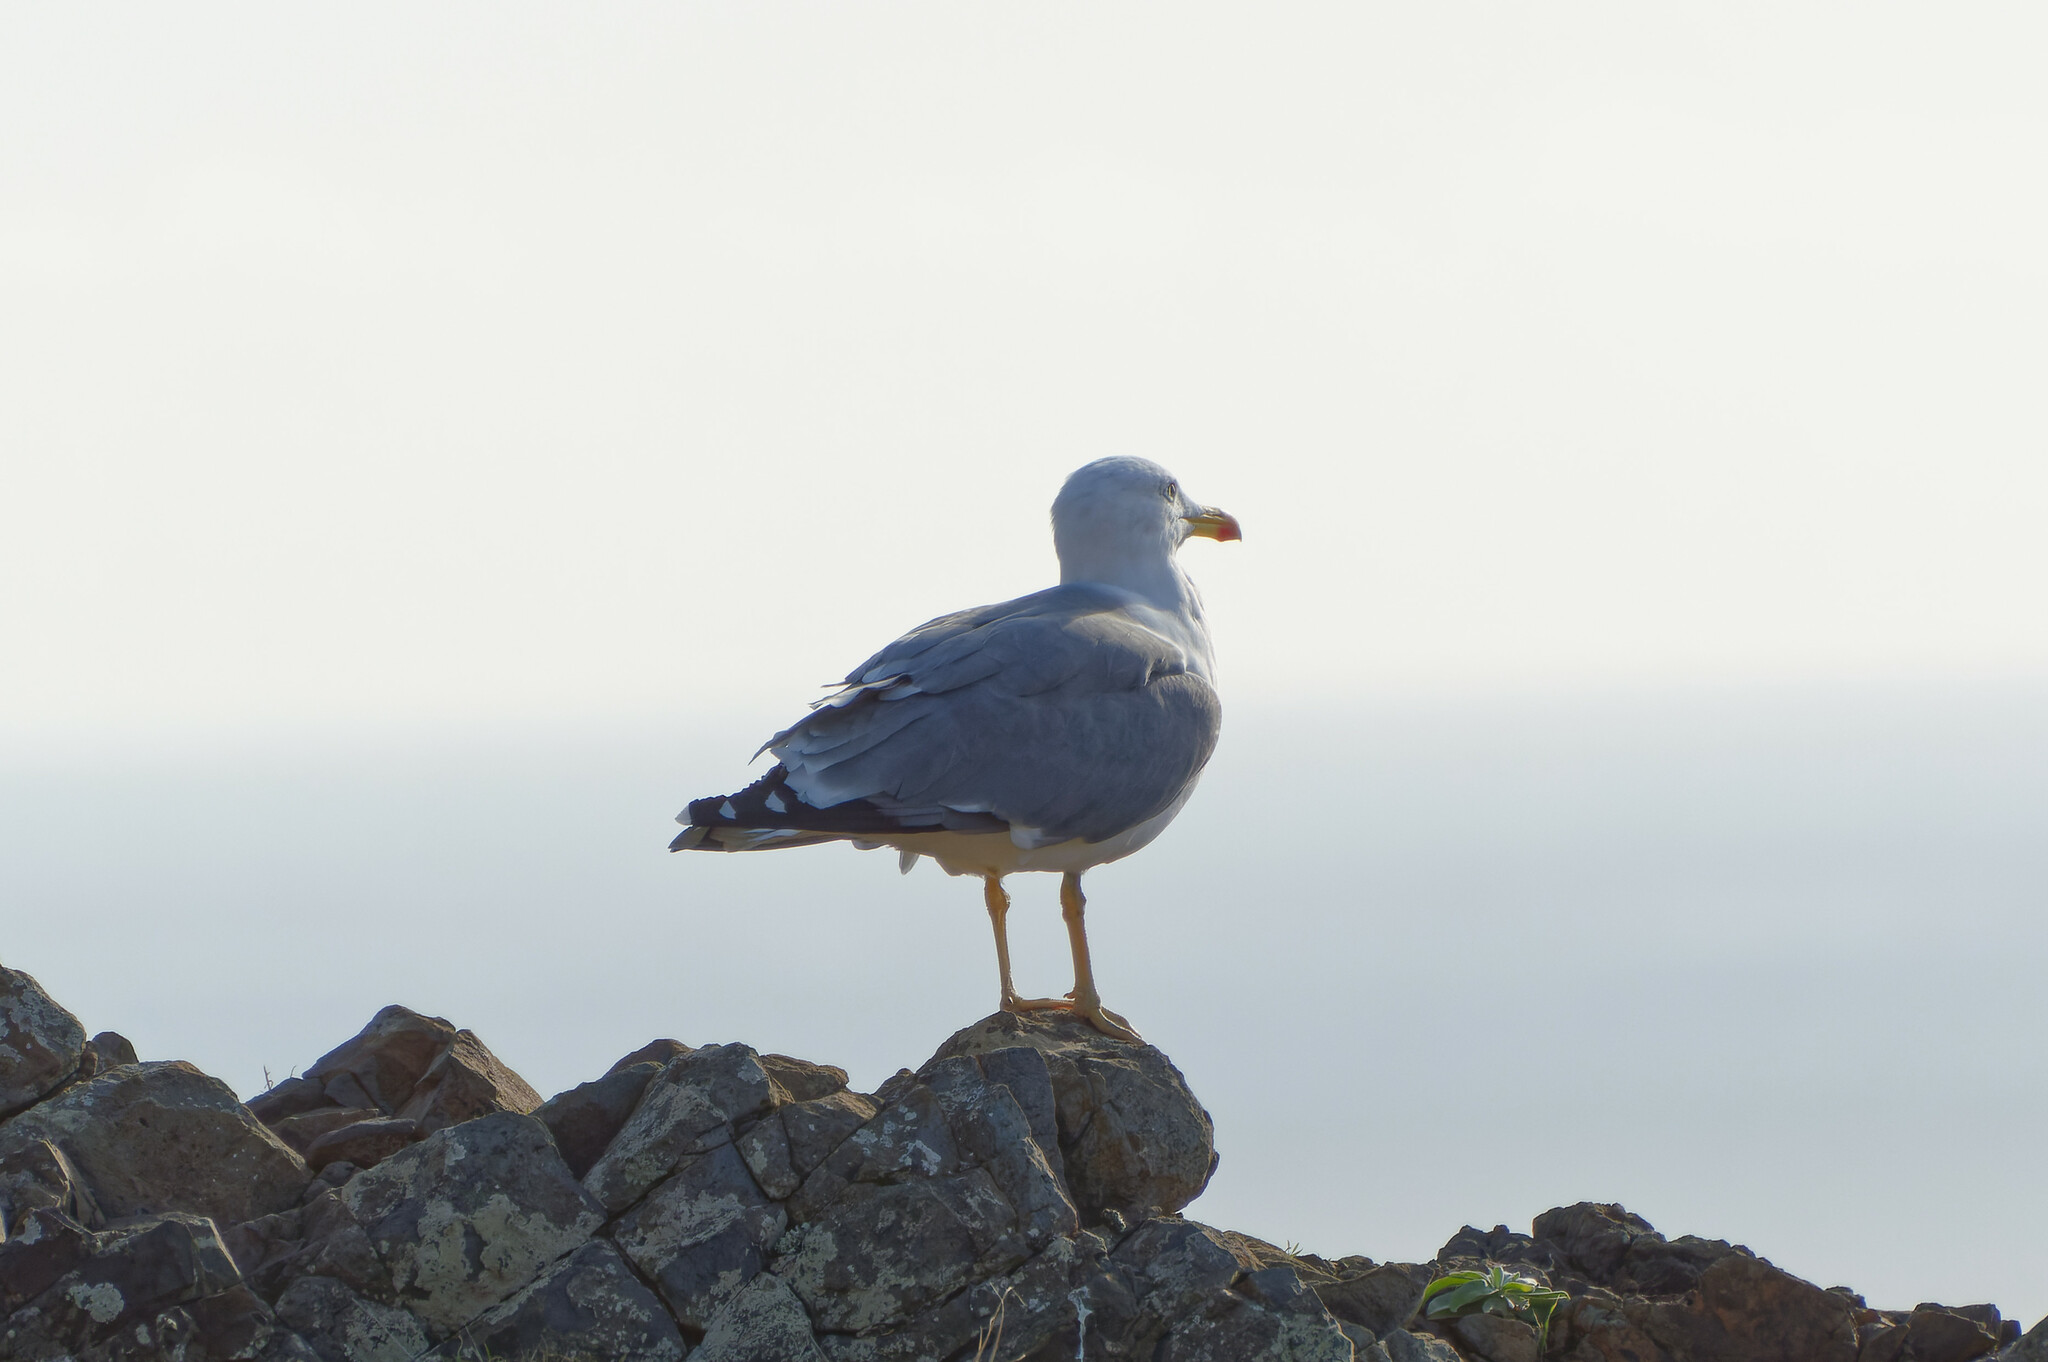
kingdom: Animalia
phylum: Chordata
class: Aves
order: Charadriiformes
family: Laridae
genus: Larus
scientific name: Larus michahellis
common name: Yellow-legged gull
